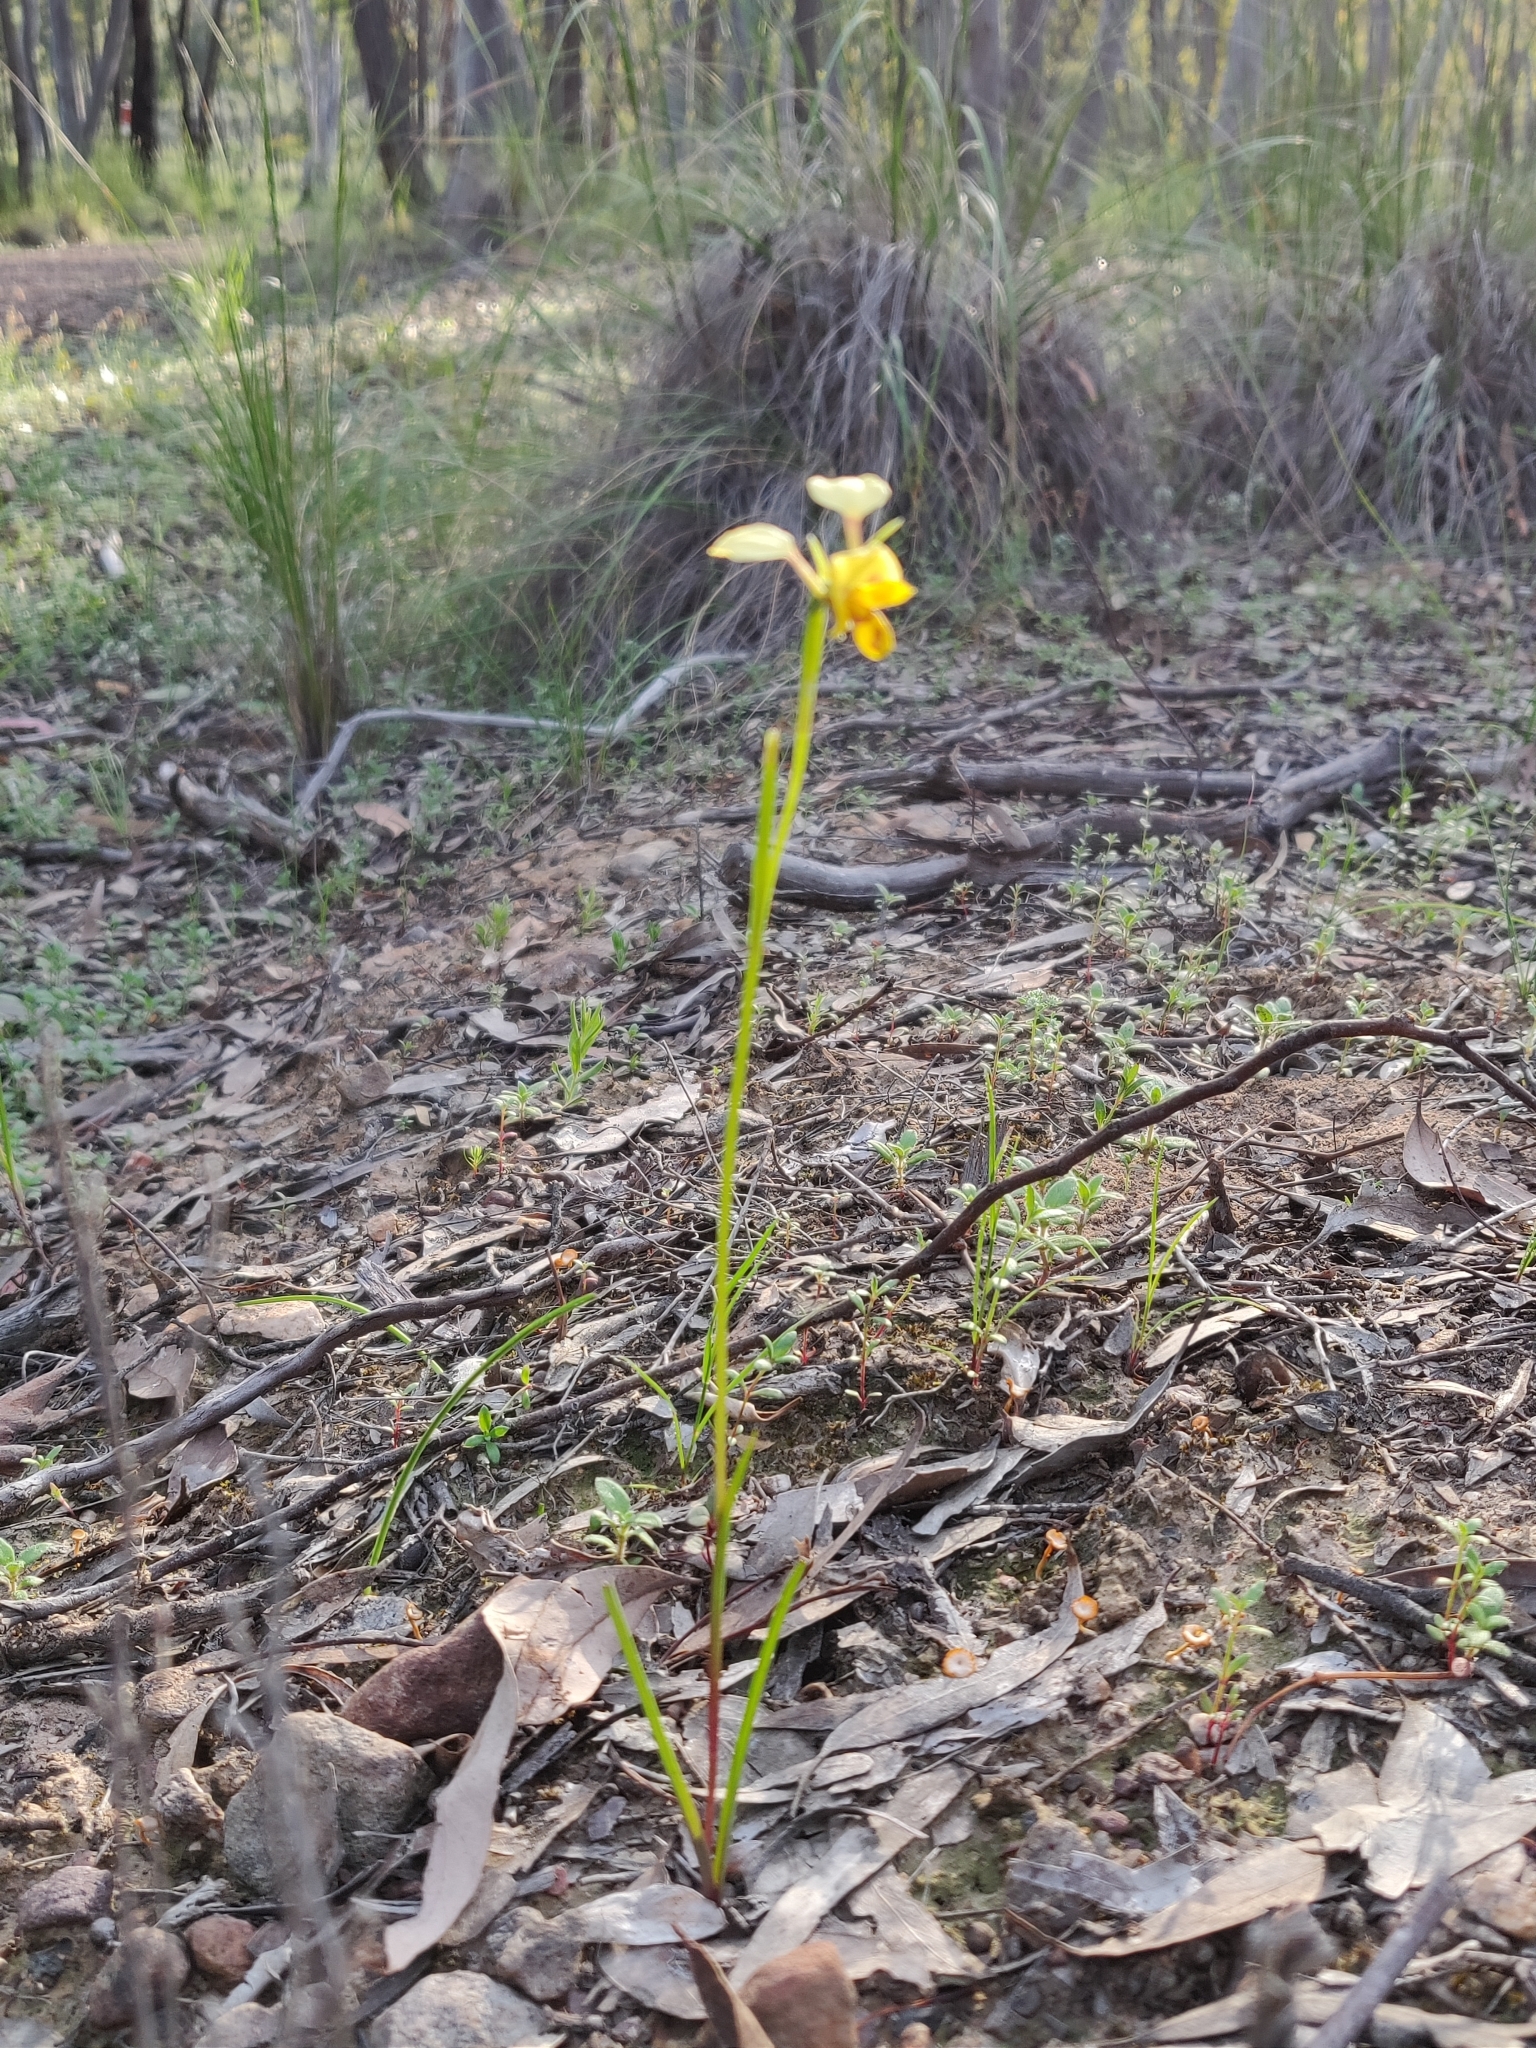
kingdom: Plantae
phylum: Tracheophyta
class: Liliopsida
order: Asparagales
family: Orchidaceae
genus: Diuris
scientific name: Diuris
